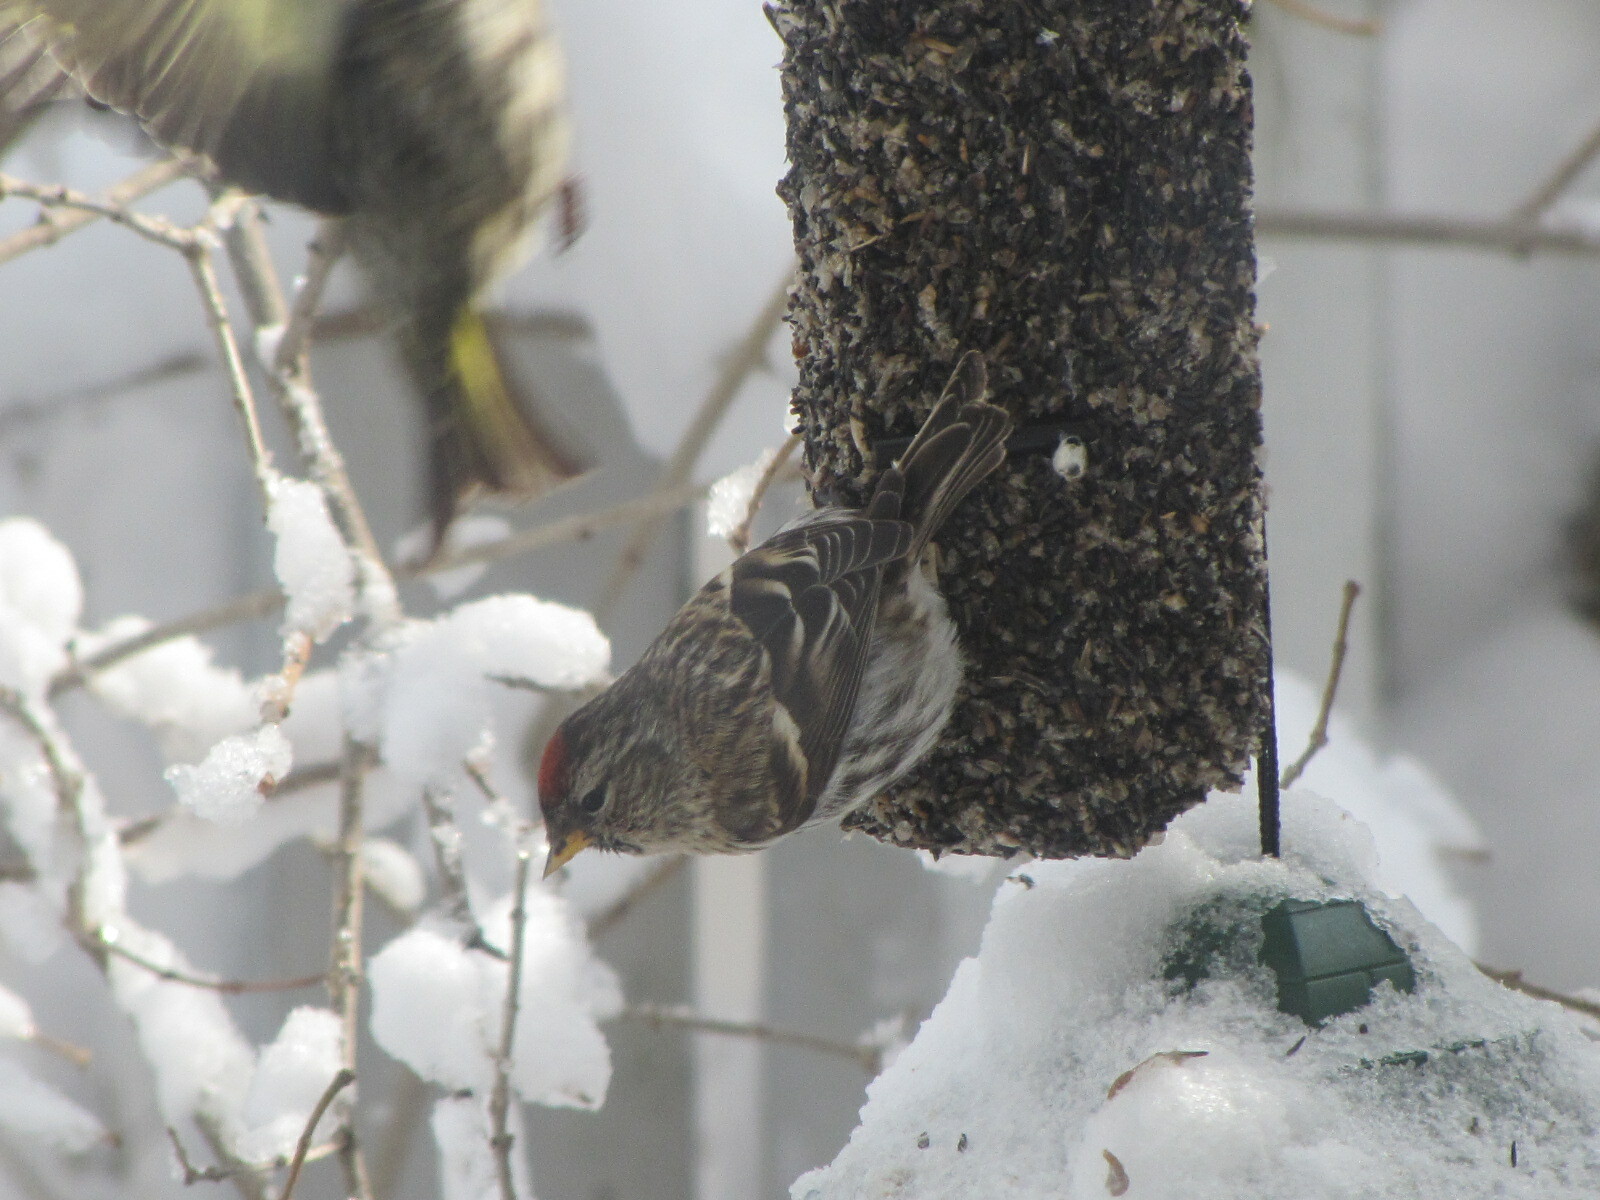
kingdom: Animalia
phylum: Chordata
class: Aves
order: Passeriformes
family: Fringillidae
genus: Acanthis
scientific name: Acanthis flammea
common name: Common redpoll
